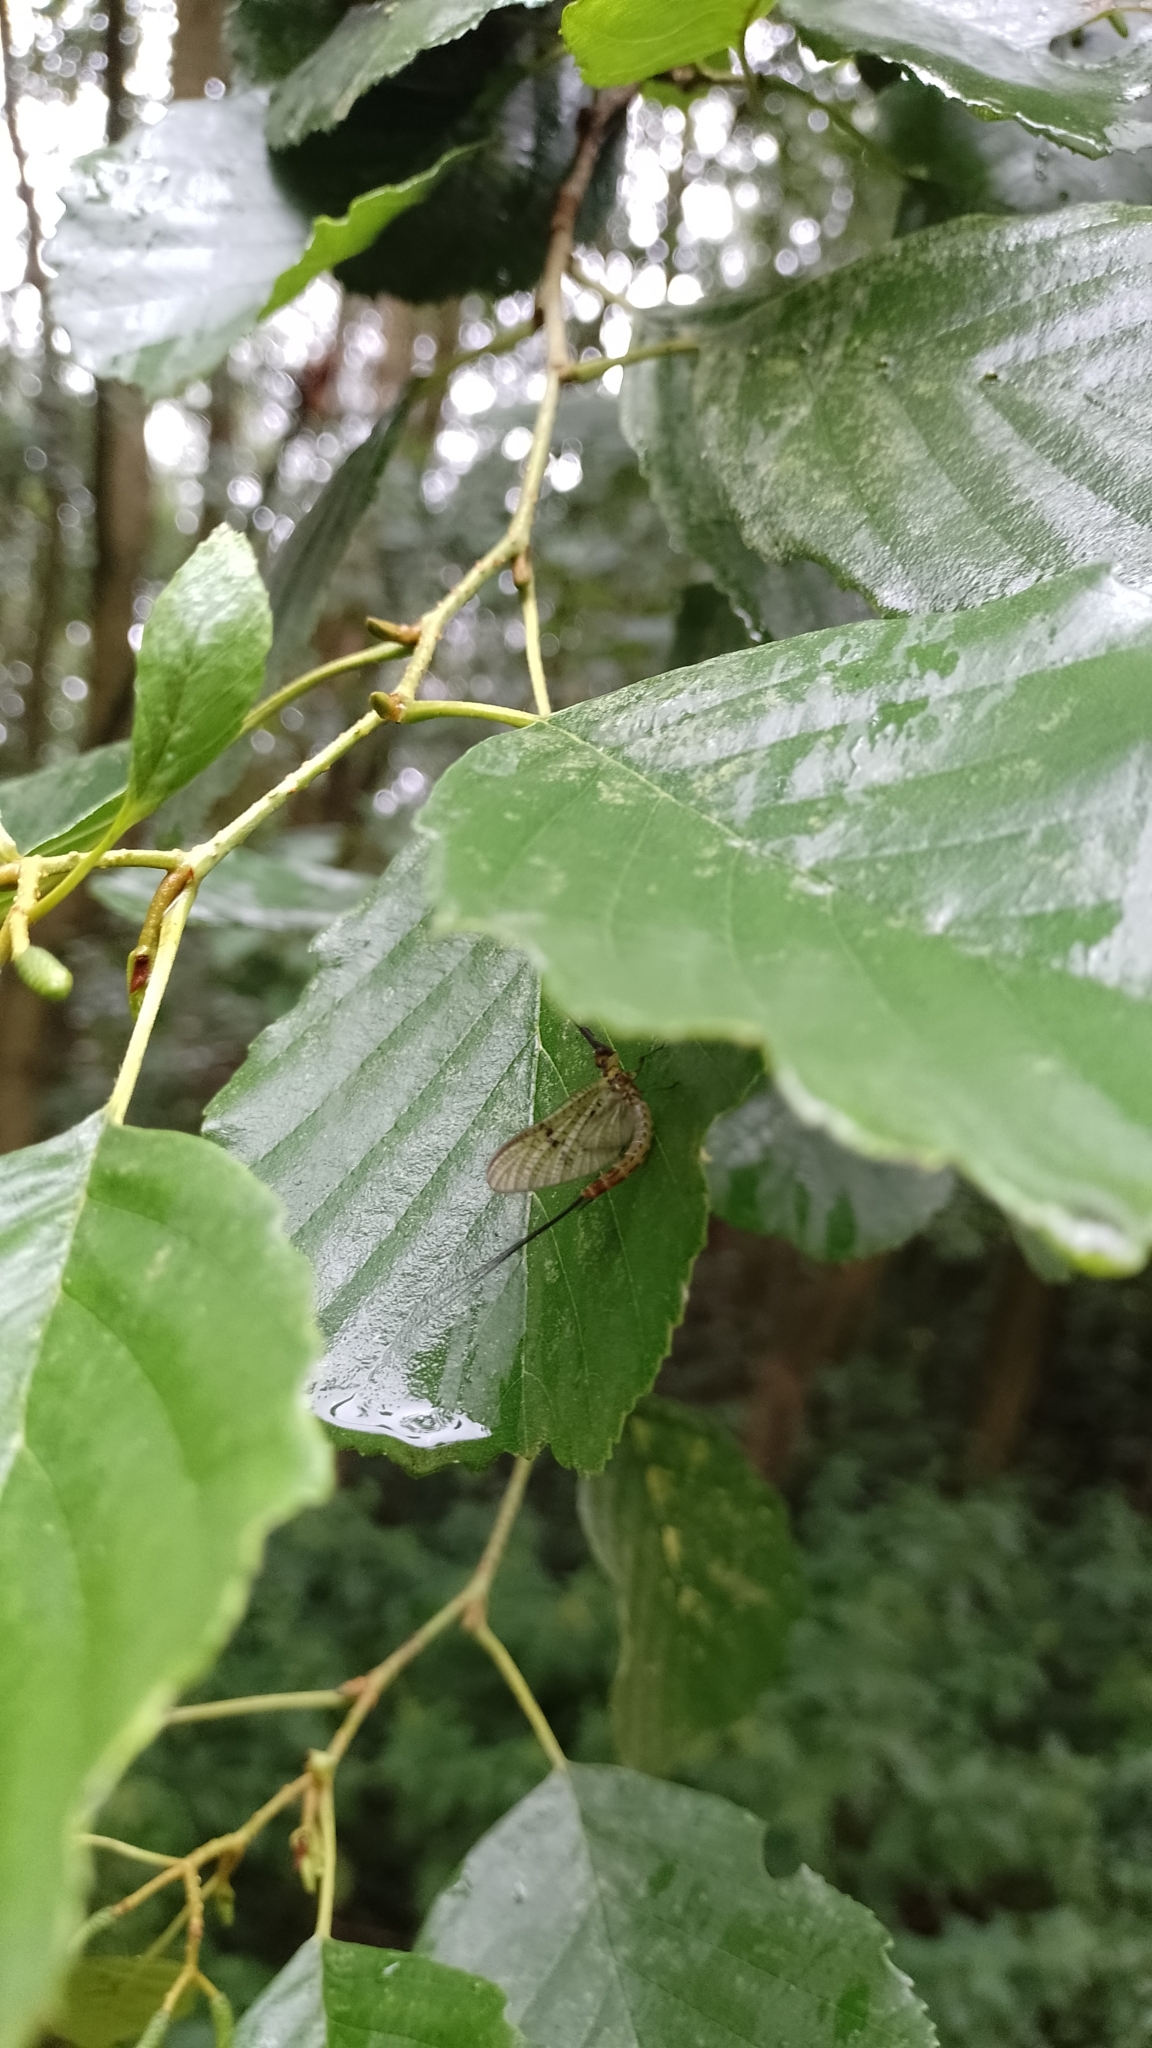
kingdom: Animalia
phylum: Arthropoda
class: Insecta
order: Ephemeroptera
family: Ephemeridae
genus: Ephemera
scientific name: Ephemera danica
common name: Green dun
